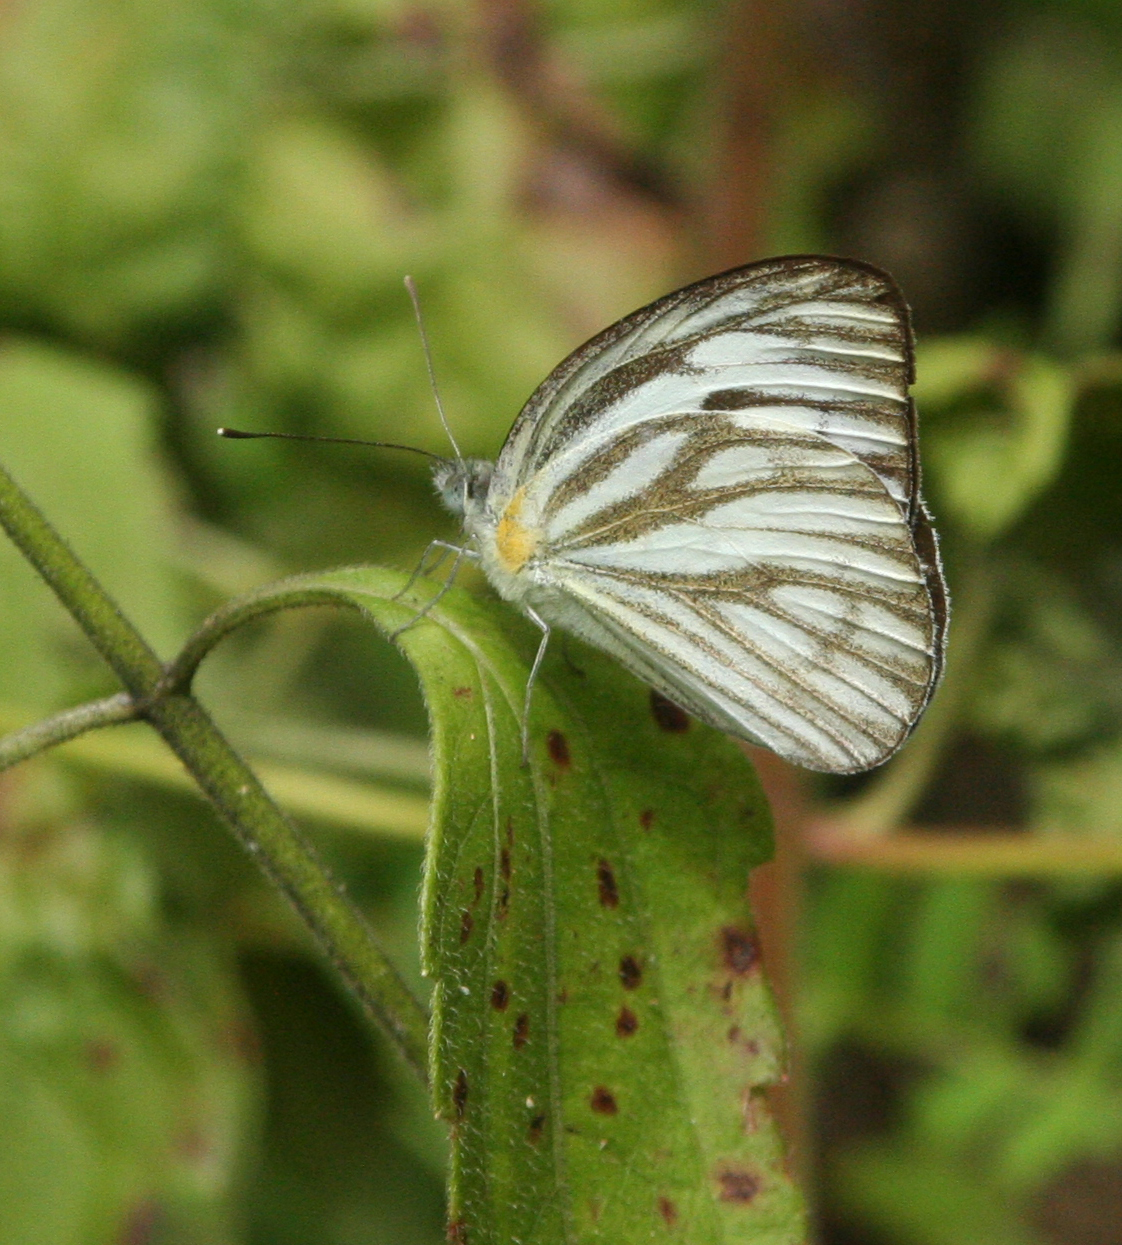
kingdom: Animalia
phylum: Arthropoda
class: Insecta
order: Lepidoptera
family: Pieridae
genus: Cepora
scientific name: Cepora nerissa
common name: Common gull
